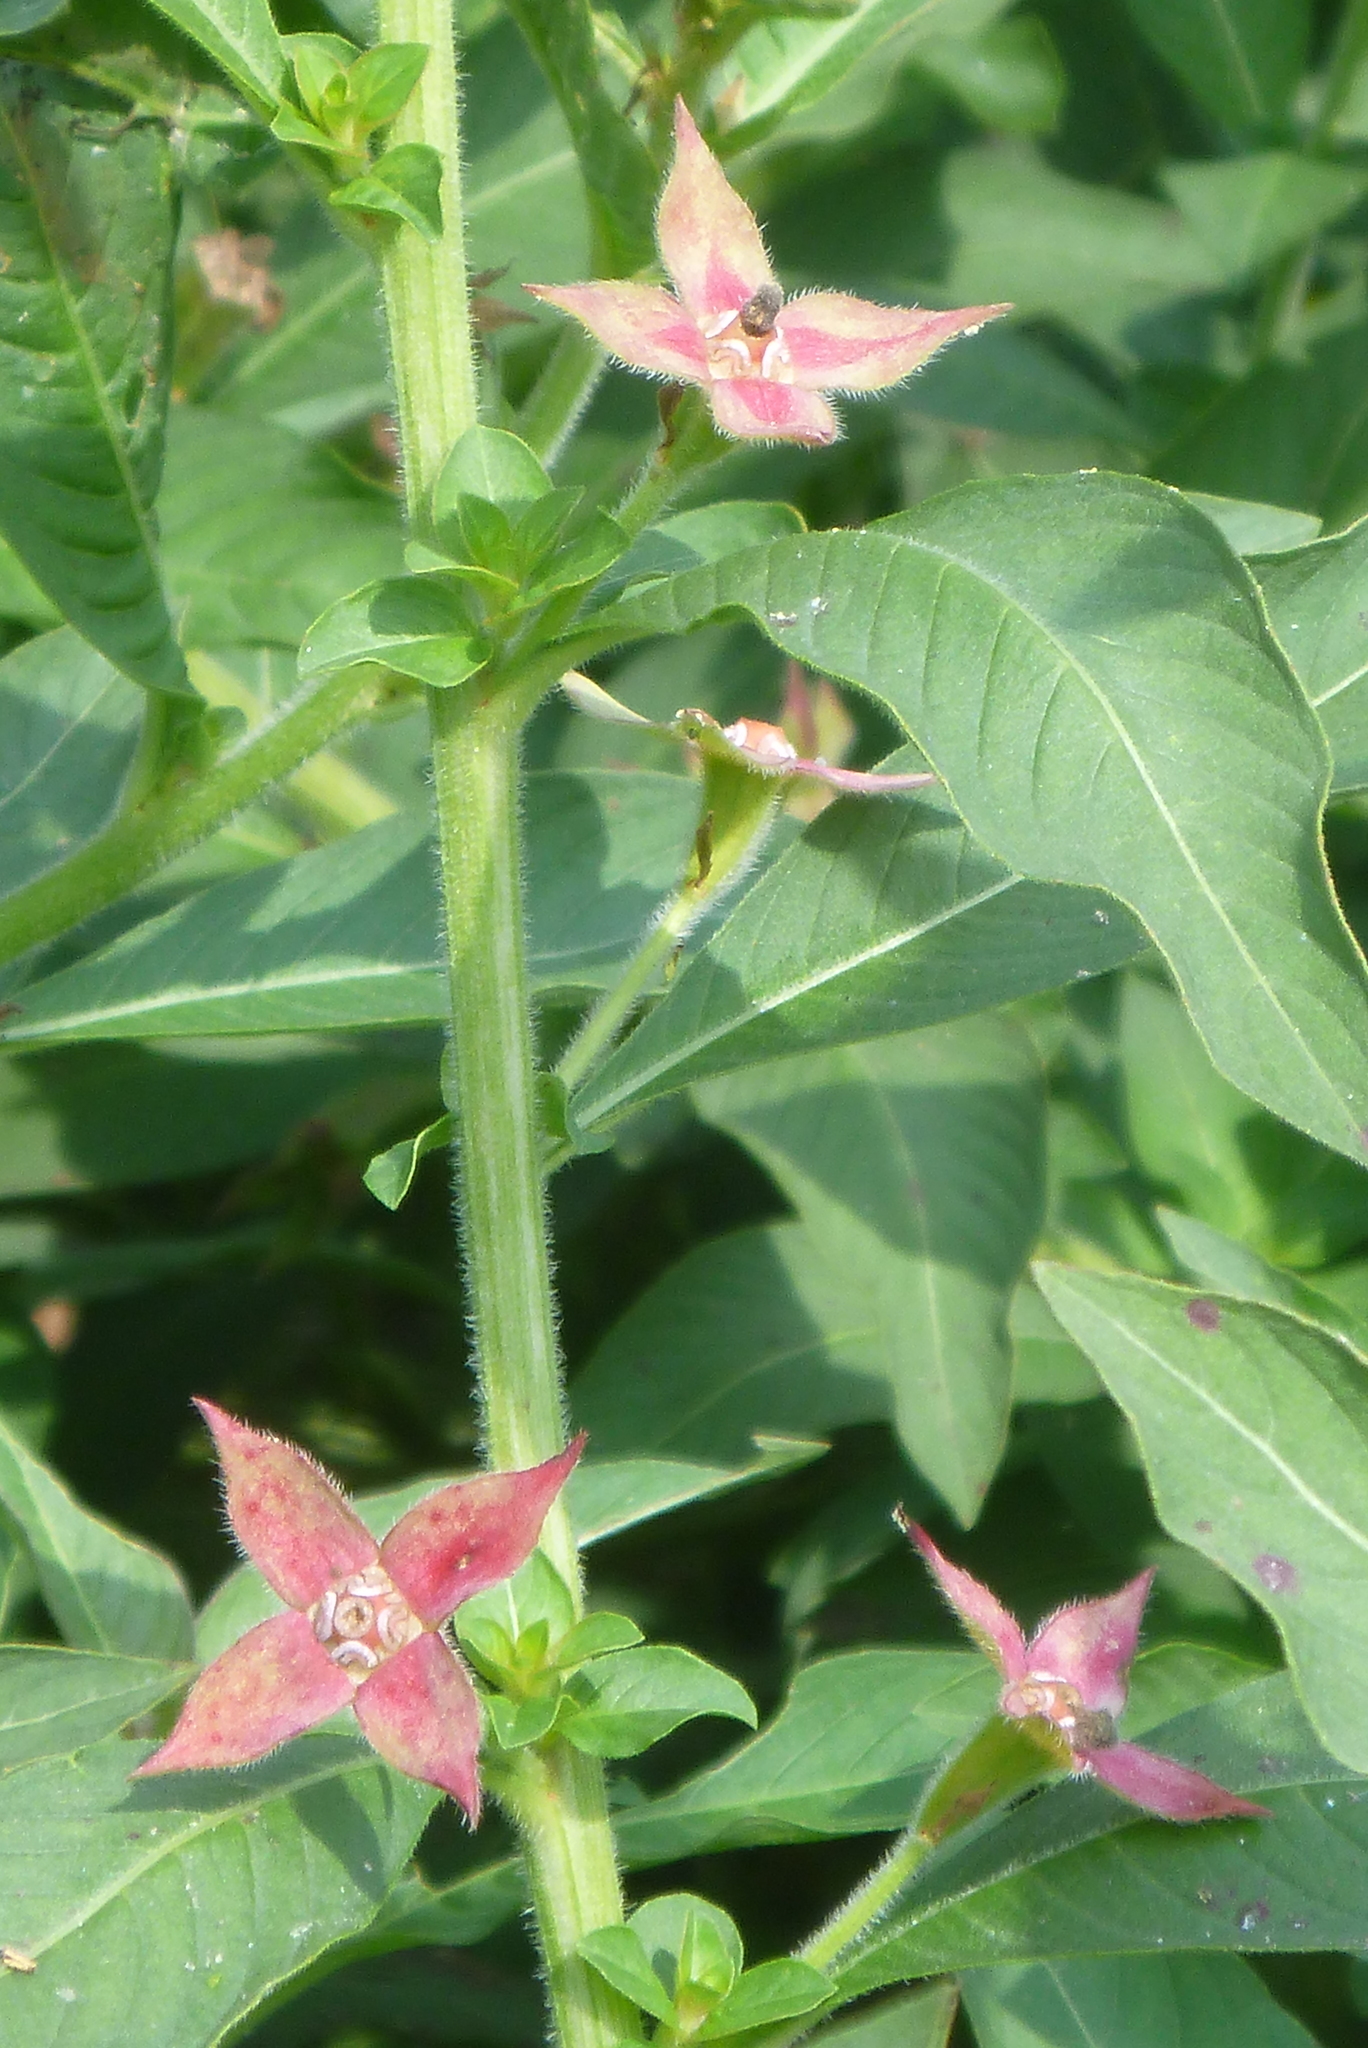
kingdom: Plantae
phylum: Tracheophyta
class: Magnoliopsida
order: Myrtales
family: Onagraceae
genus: Ludwigia
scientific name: Ludwigia peruviana
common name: Peruvian primrose-willow
